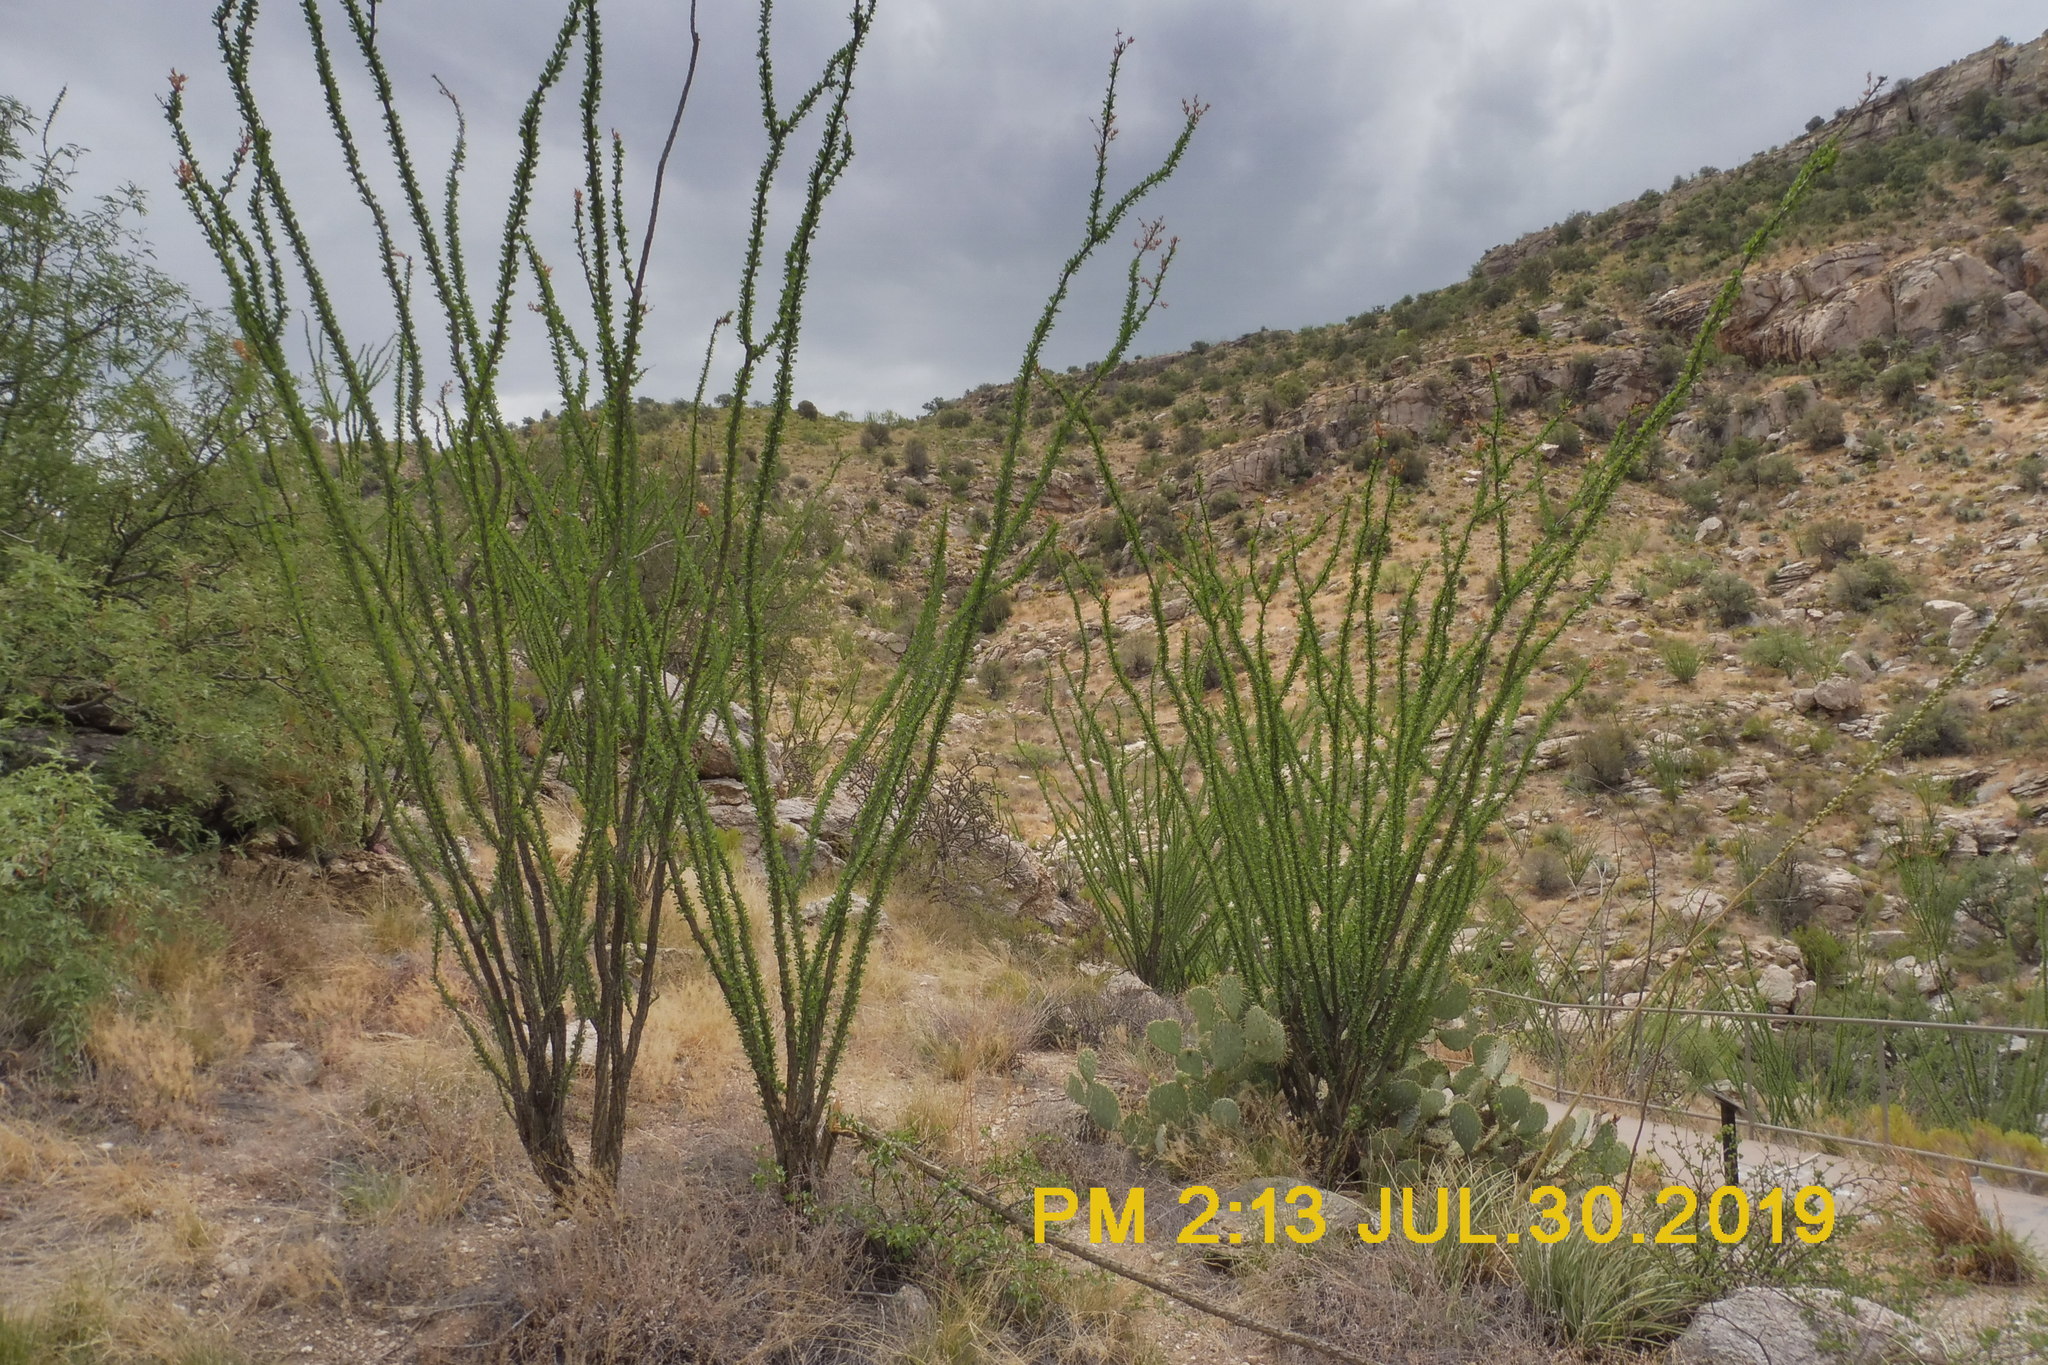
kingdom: Plantae
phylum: Tracheophyta
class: Magnoliopsida
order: Ericales
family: Fouquieriaceae
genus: Fouquieria
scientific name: Fouquieria splendens
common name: Vine-cactus
